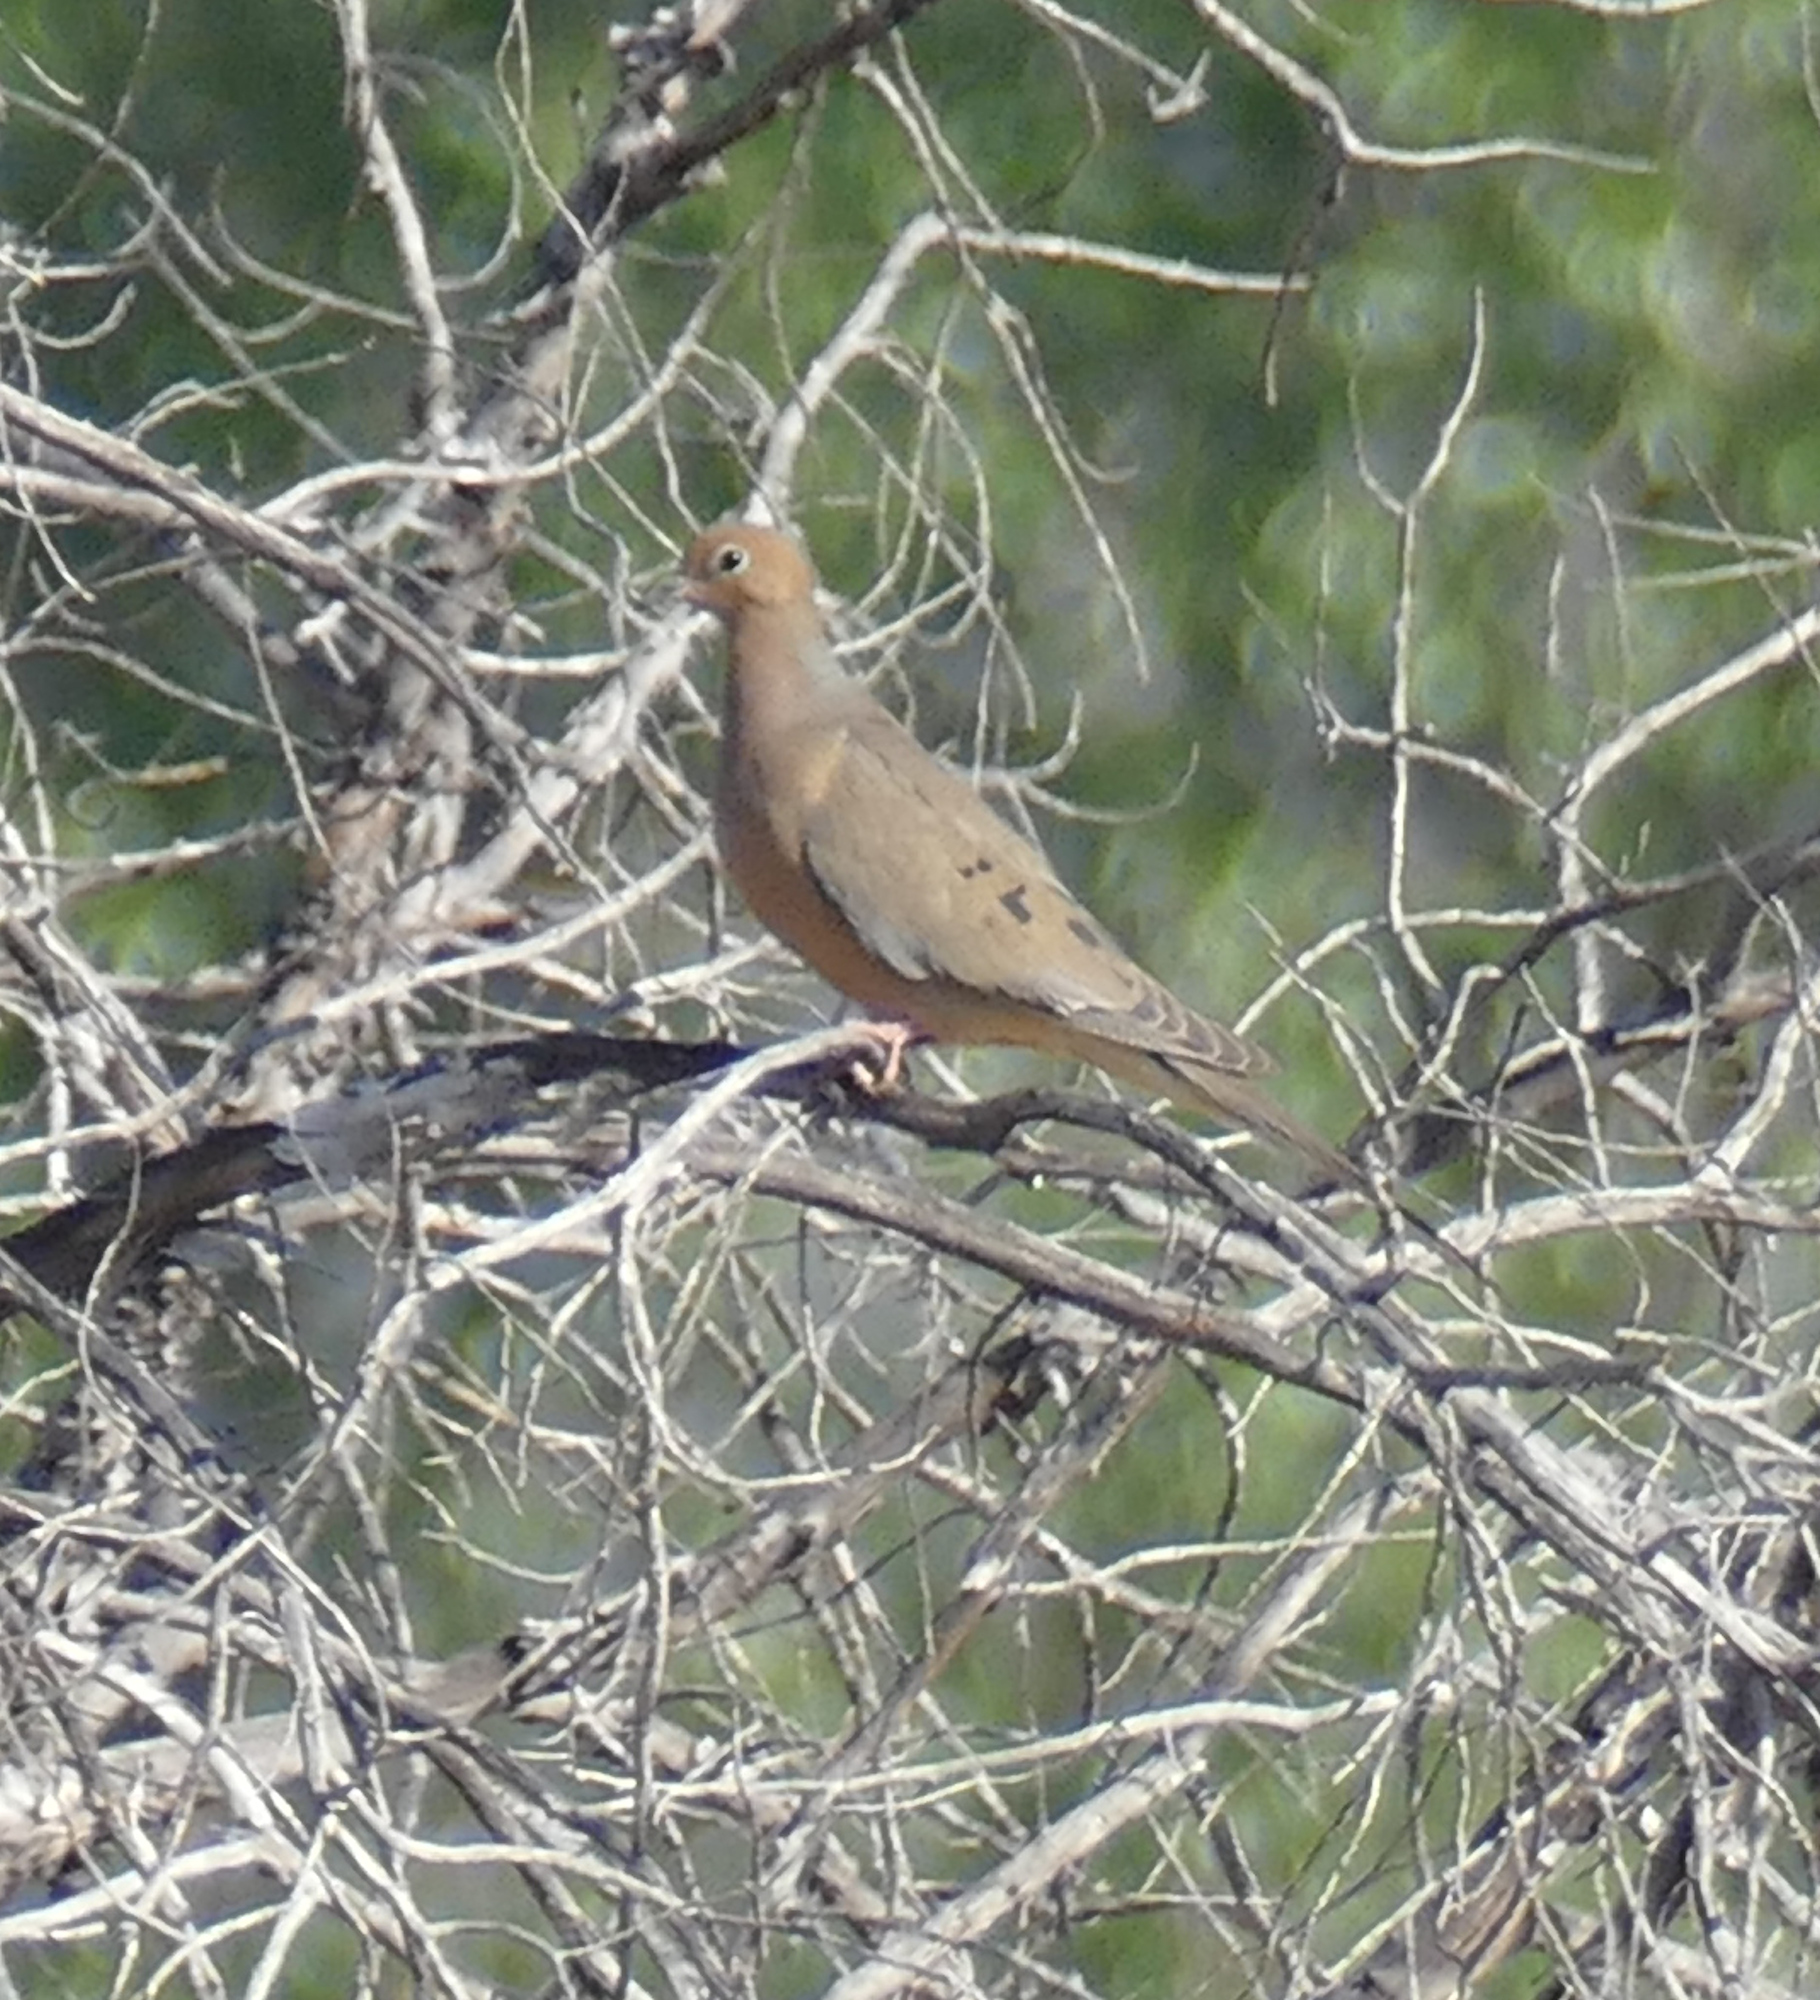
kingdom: Animalia
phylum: Chordata
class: Aves
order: Columbiformes
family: Columbidae
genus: Zenaida
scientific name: Zenaida macroura
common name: Mourning dove
